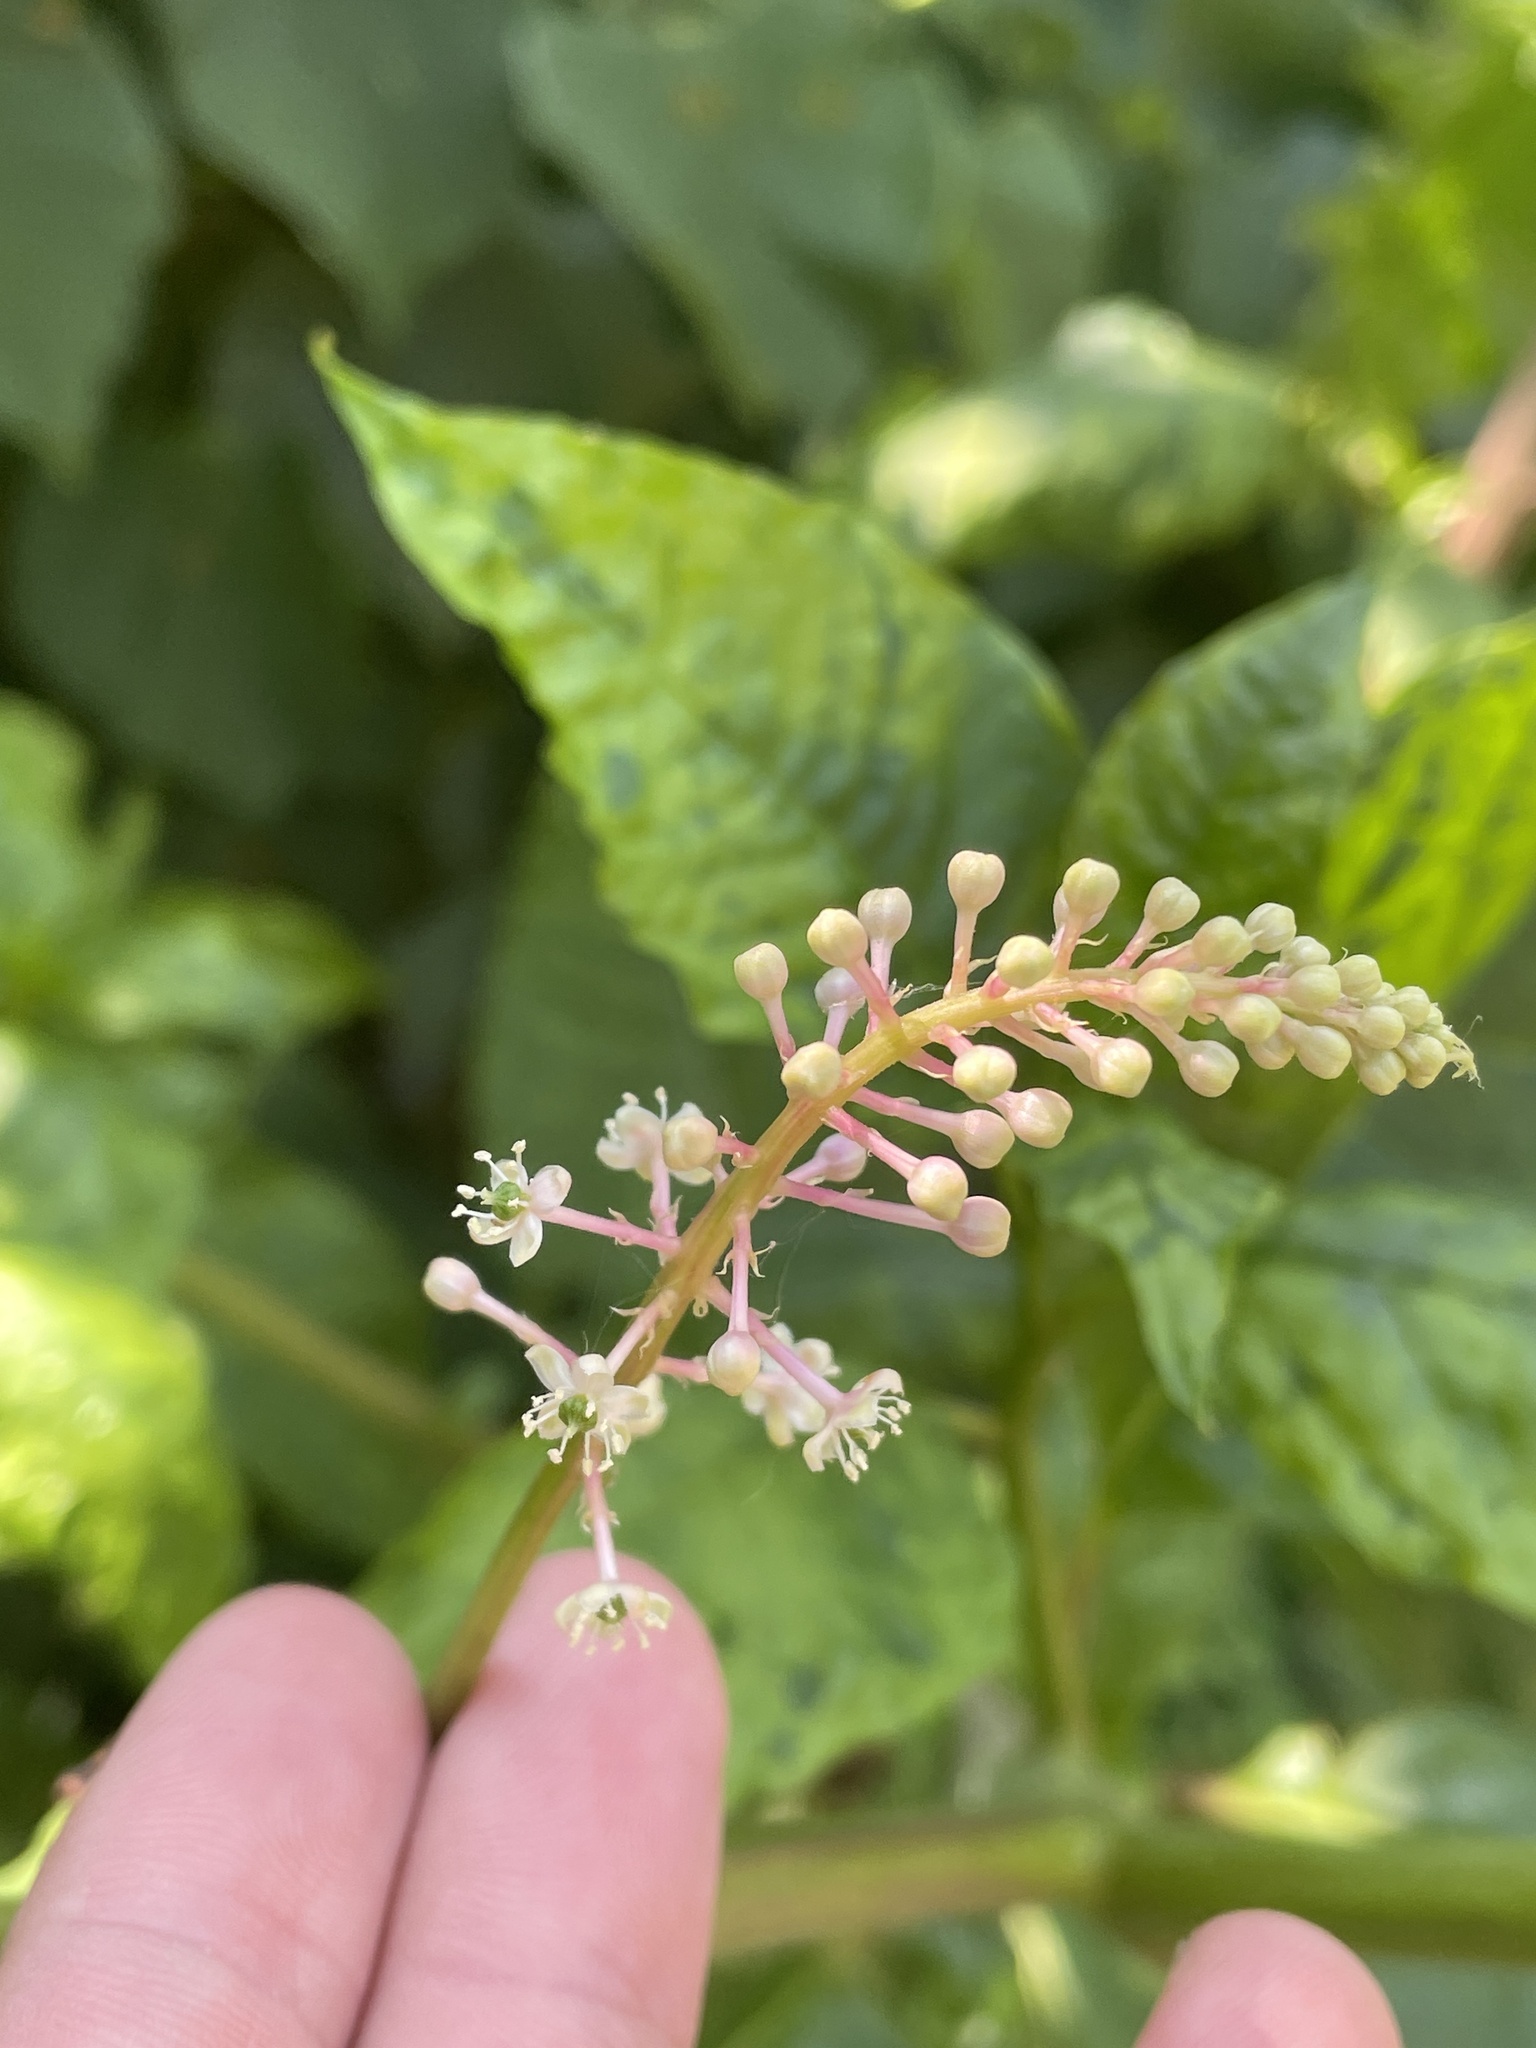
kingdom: Plantae
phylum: Tracheophyta
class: Magnoliopsida
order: Caryophyllales
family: Phytolaccaceae
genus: Phytolacca
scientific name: Phytolacca americana
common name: American pokeweed
